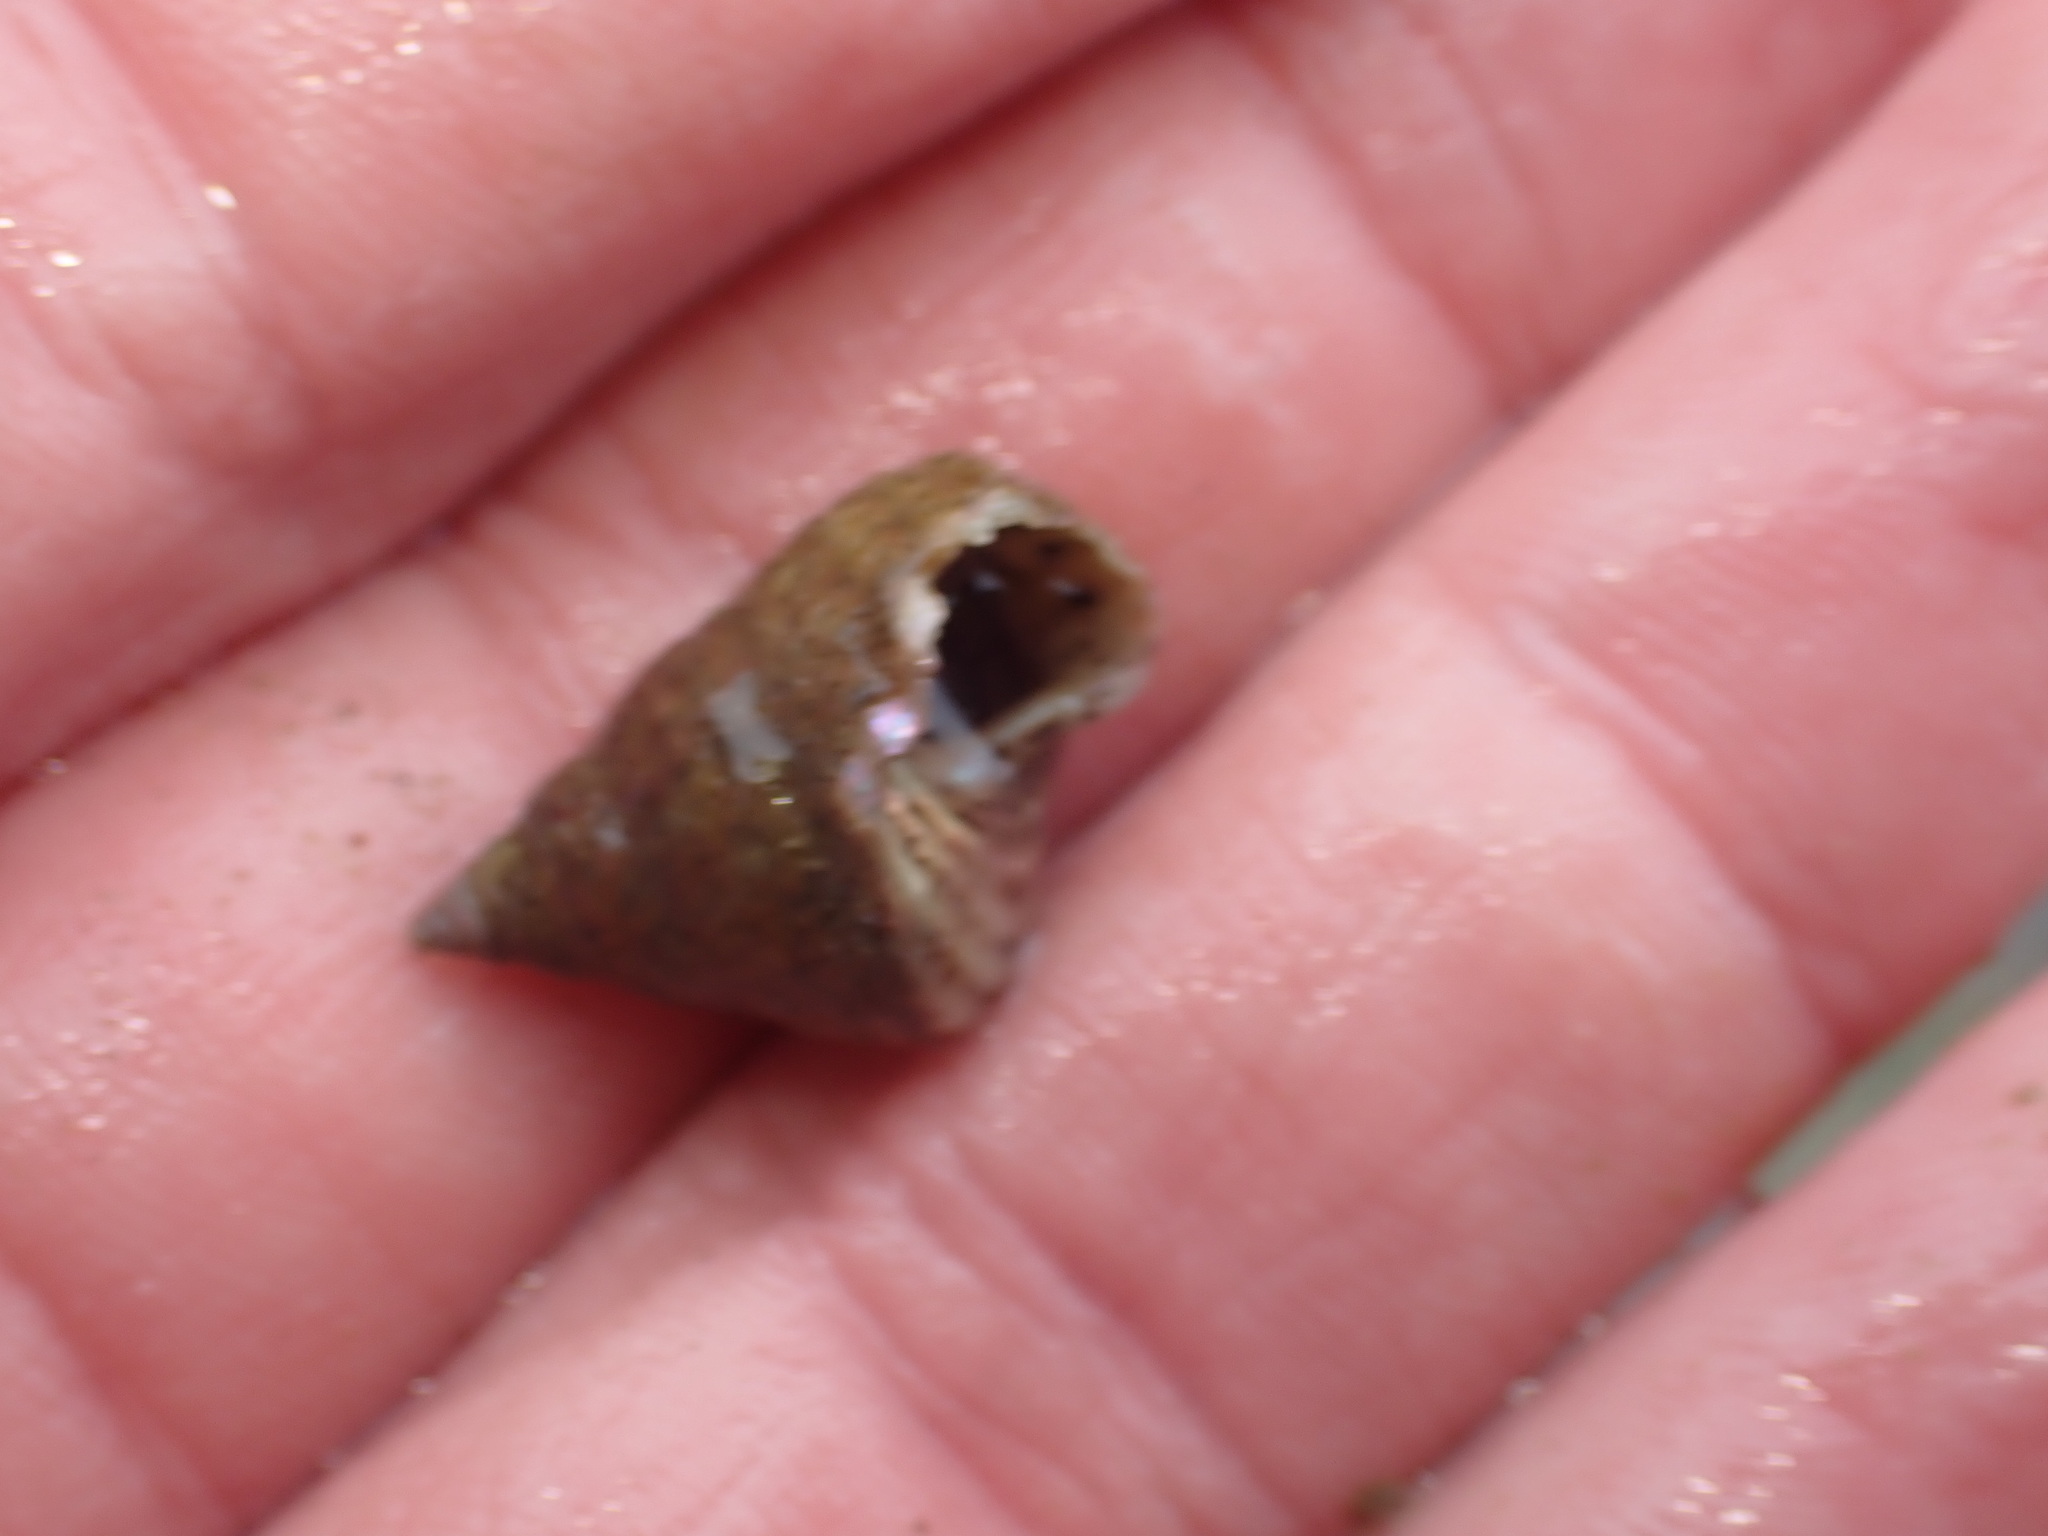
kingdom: Animalia
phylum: Mollusca
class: Gastropoda
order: Trochida
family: Trochidae
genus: Micrelenchus
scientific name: Micrelenchus purpureus
